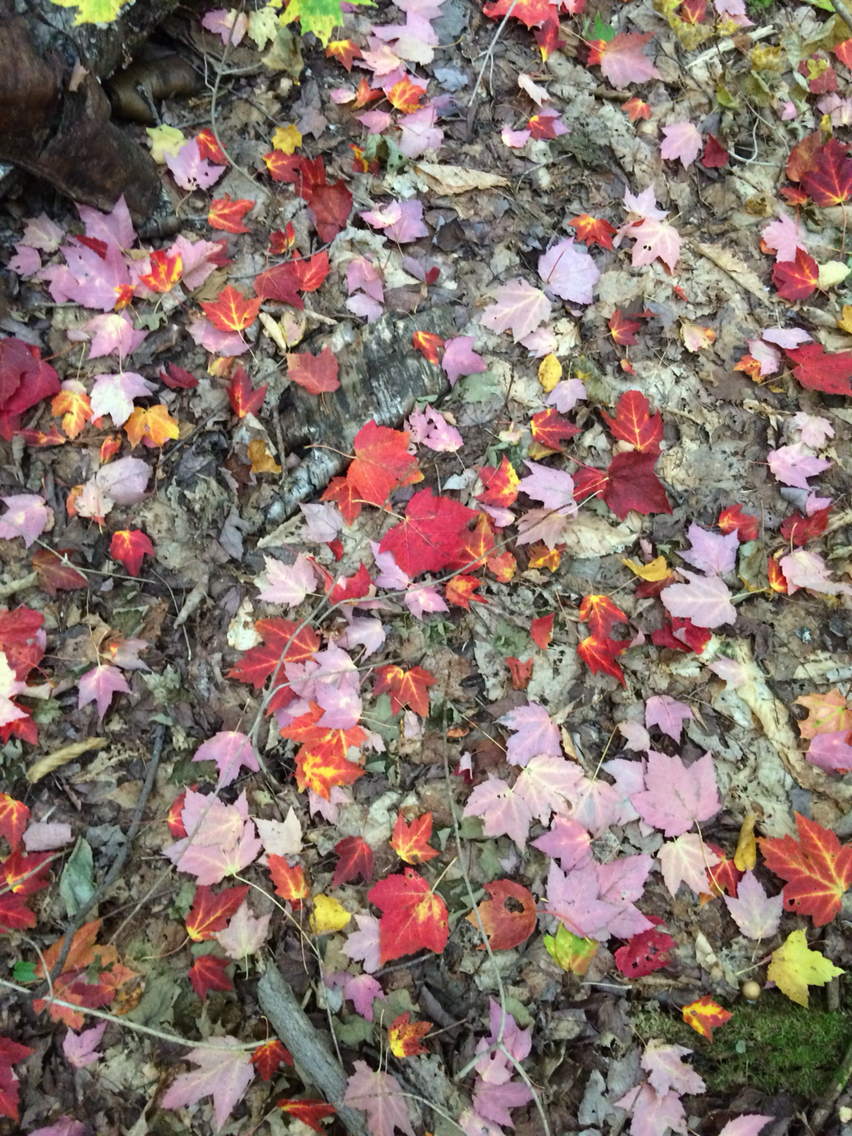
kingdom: Plantae
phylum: Tracheophyta
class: Magnoliopsida
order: Sapindales
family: Sapindaceae
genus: Acer
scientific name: Acer rubrum
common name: Red maple
